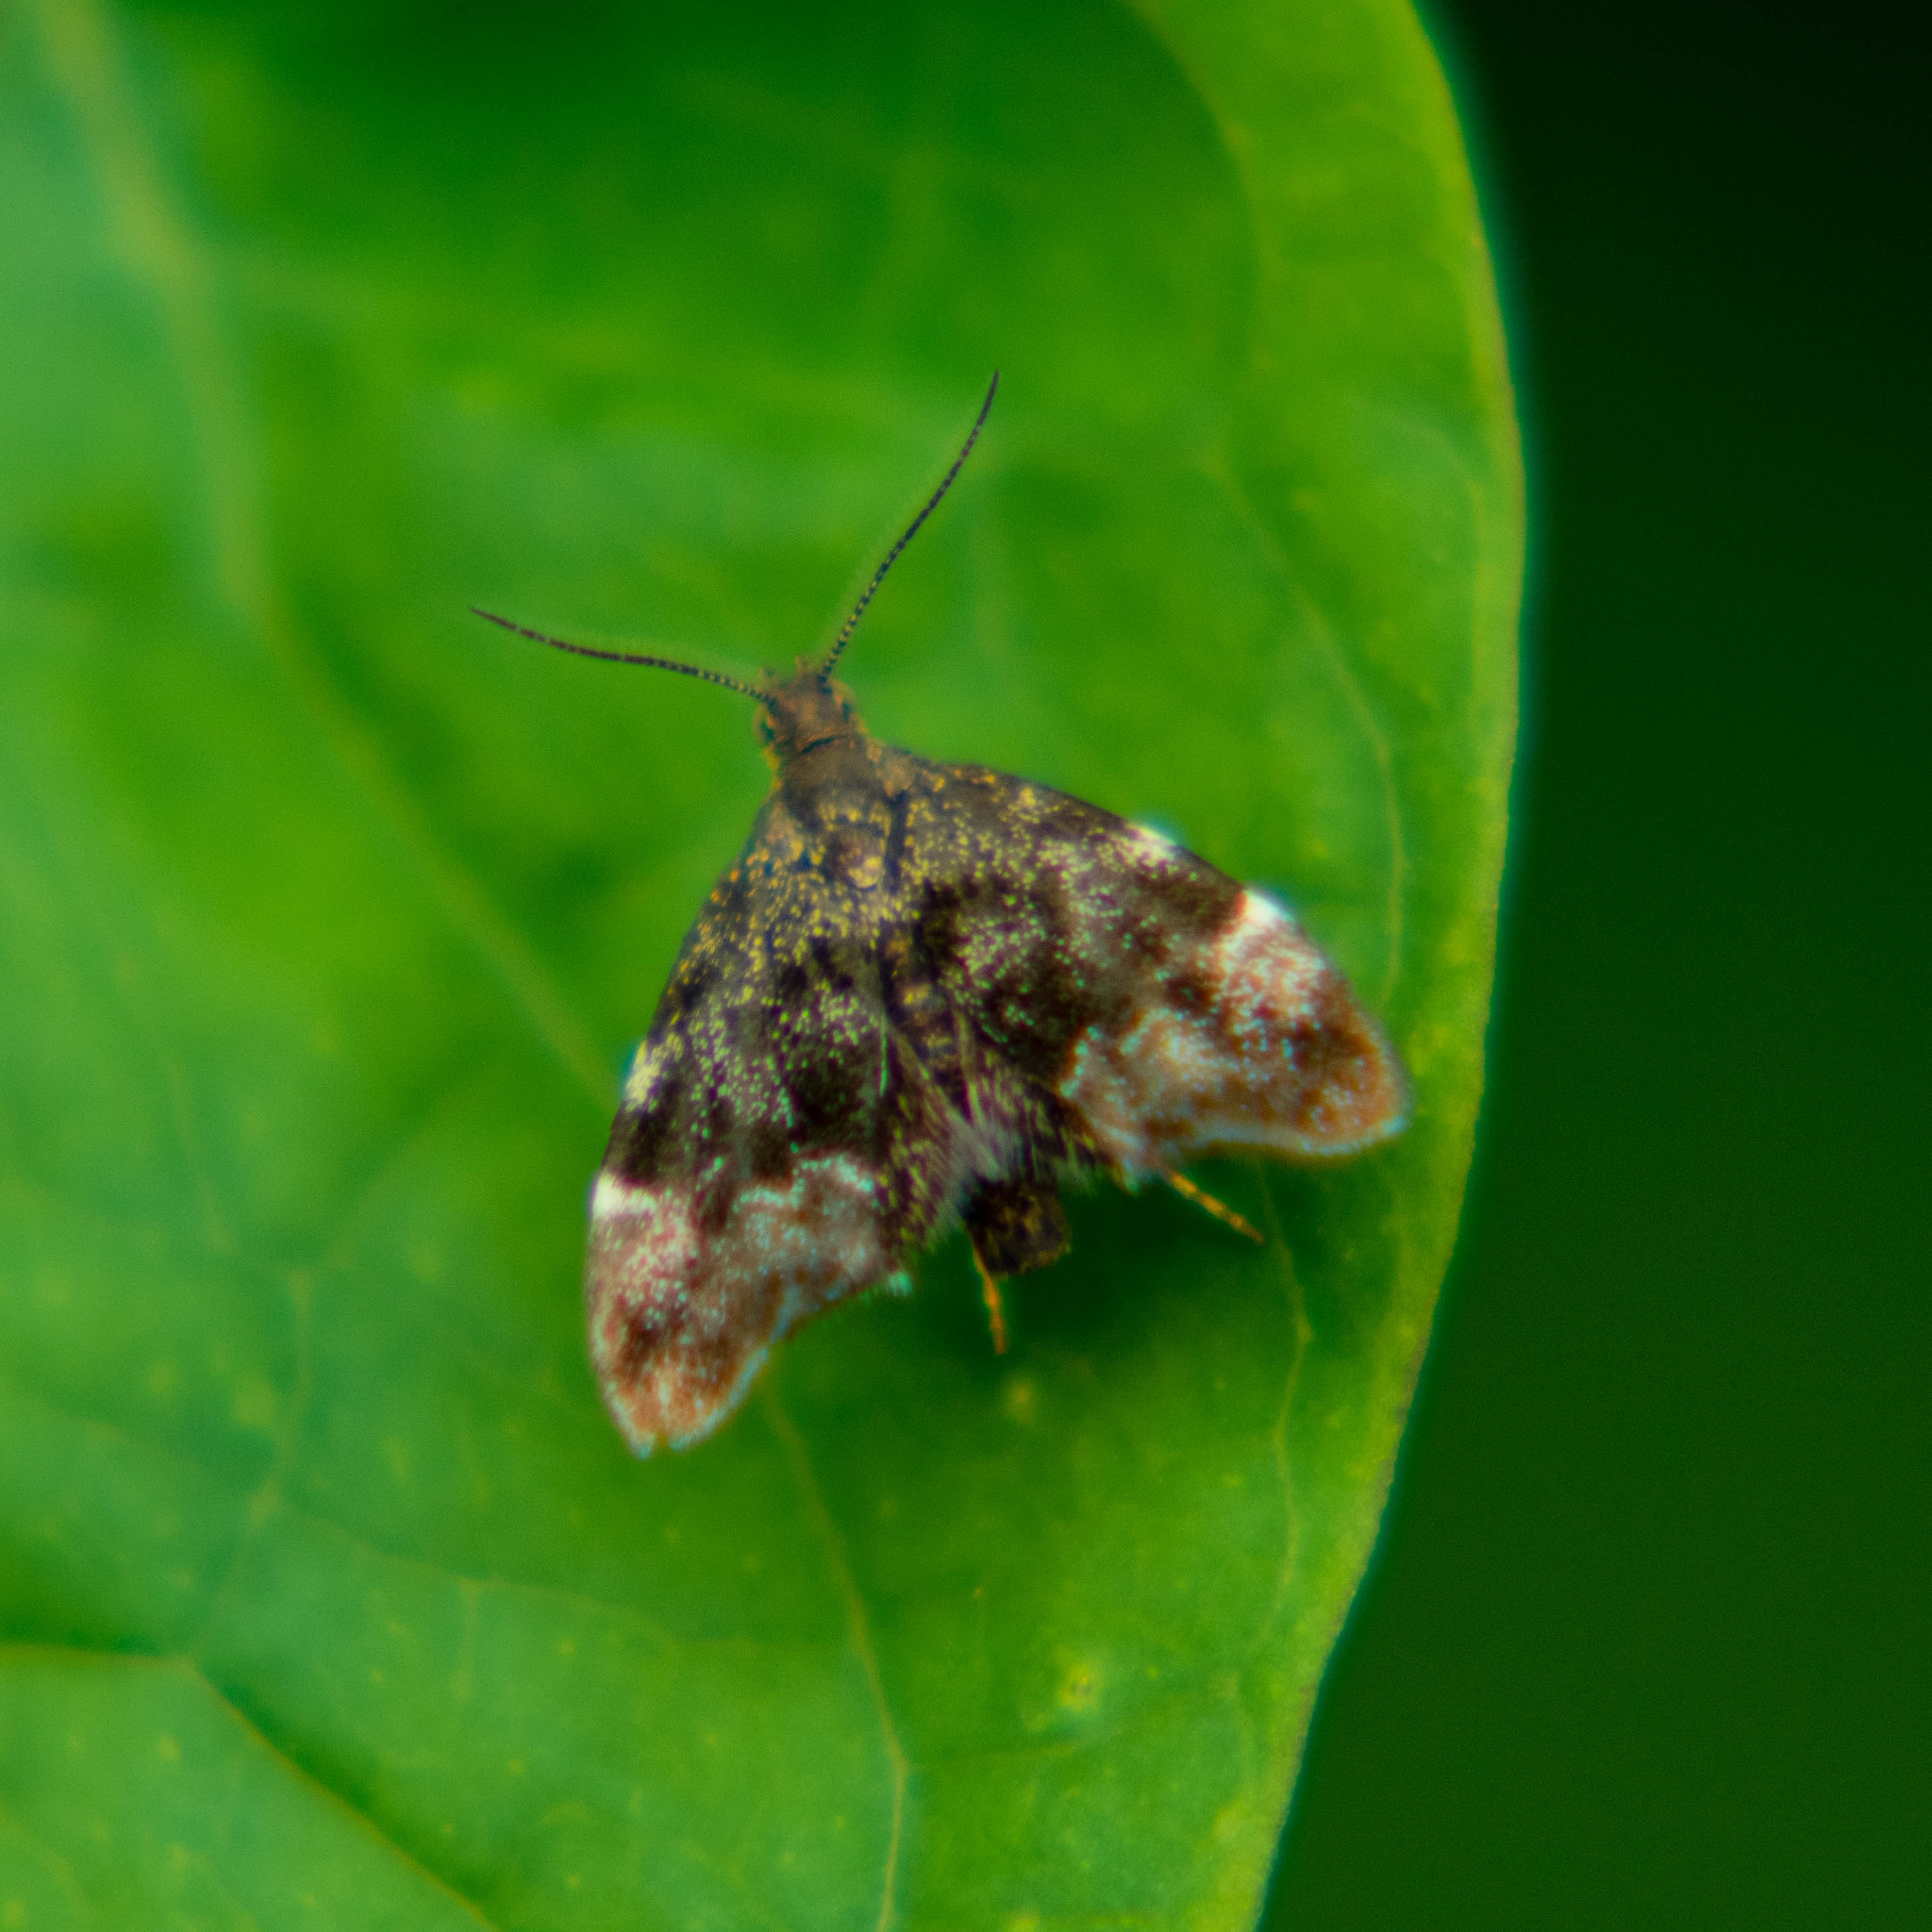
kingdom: Animalia
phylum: Arthropoda
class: Insecta
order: Lepidoptera
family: Choreutidae
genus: Anthophila
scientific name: Anthophila fabriciana
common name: Nettle-tap
